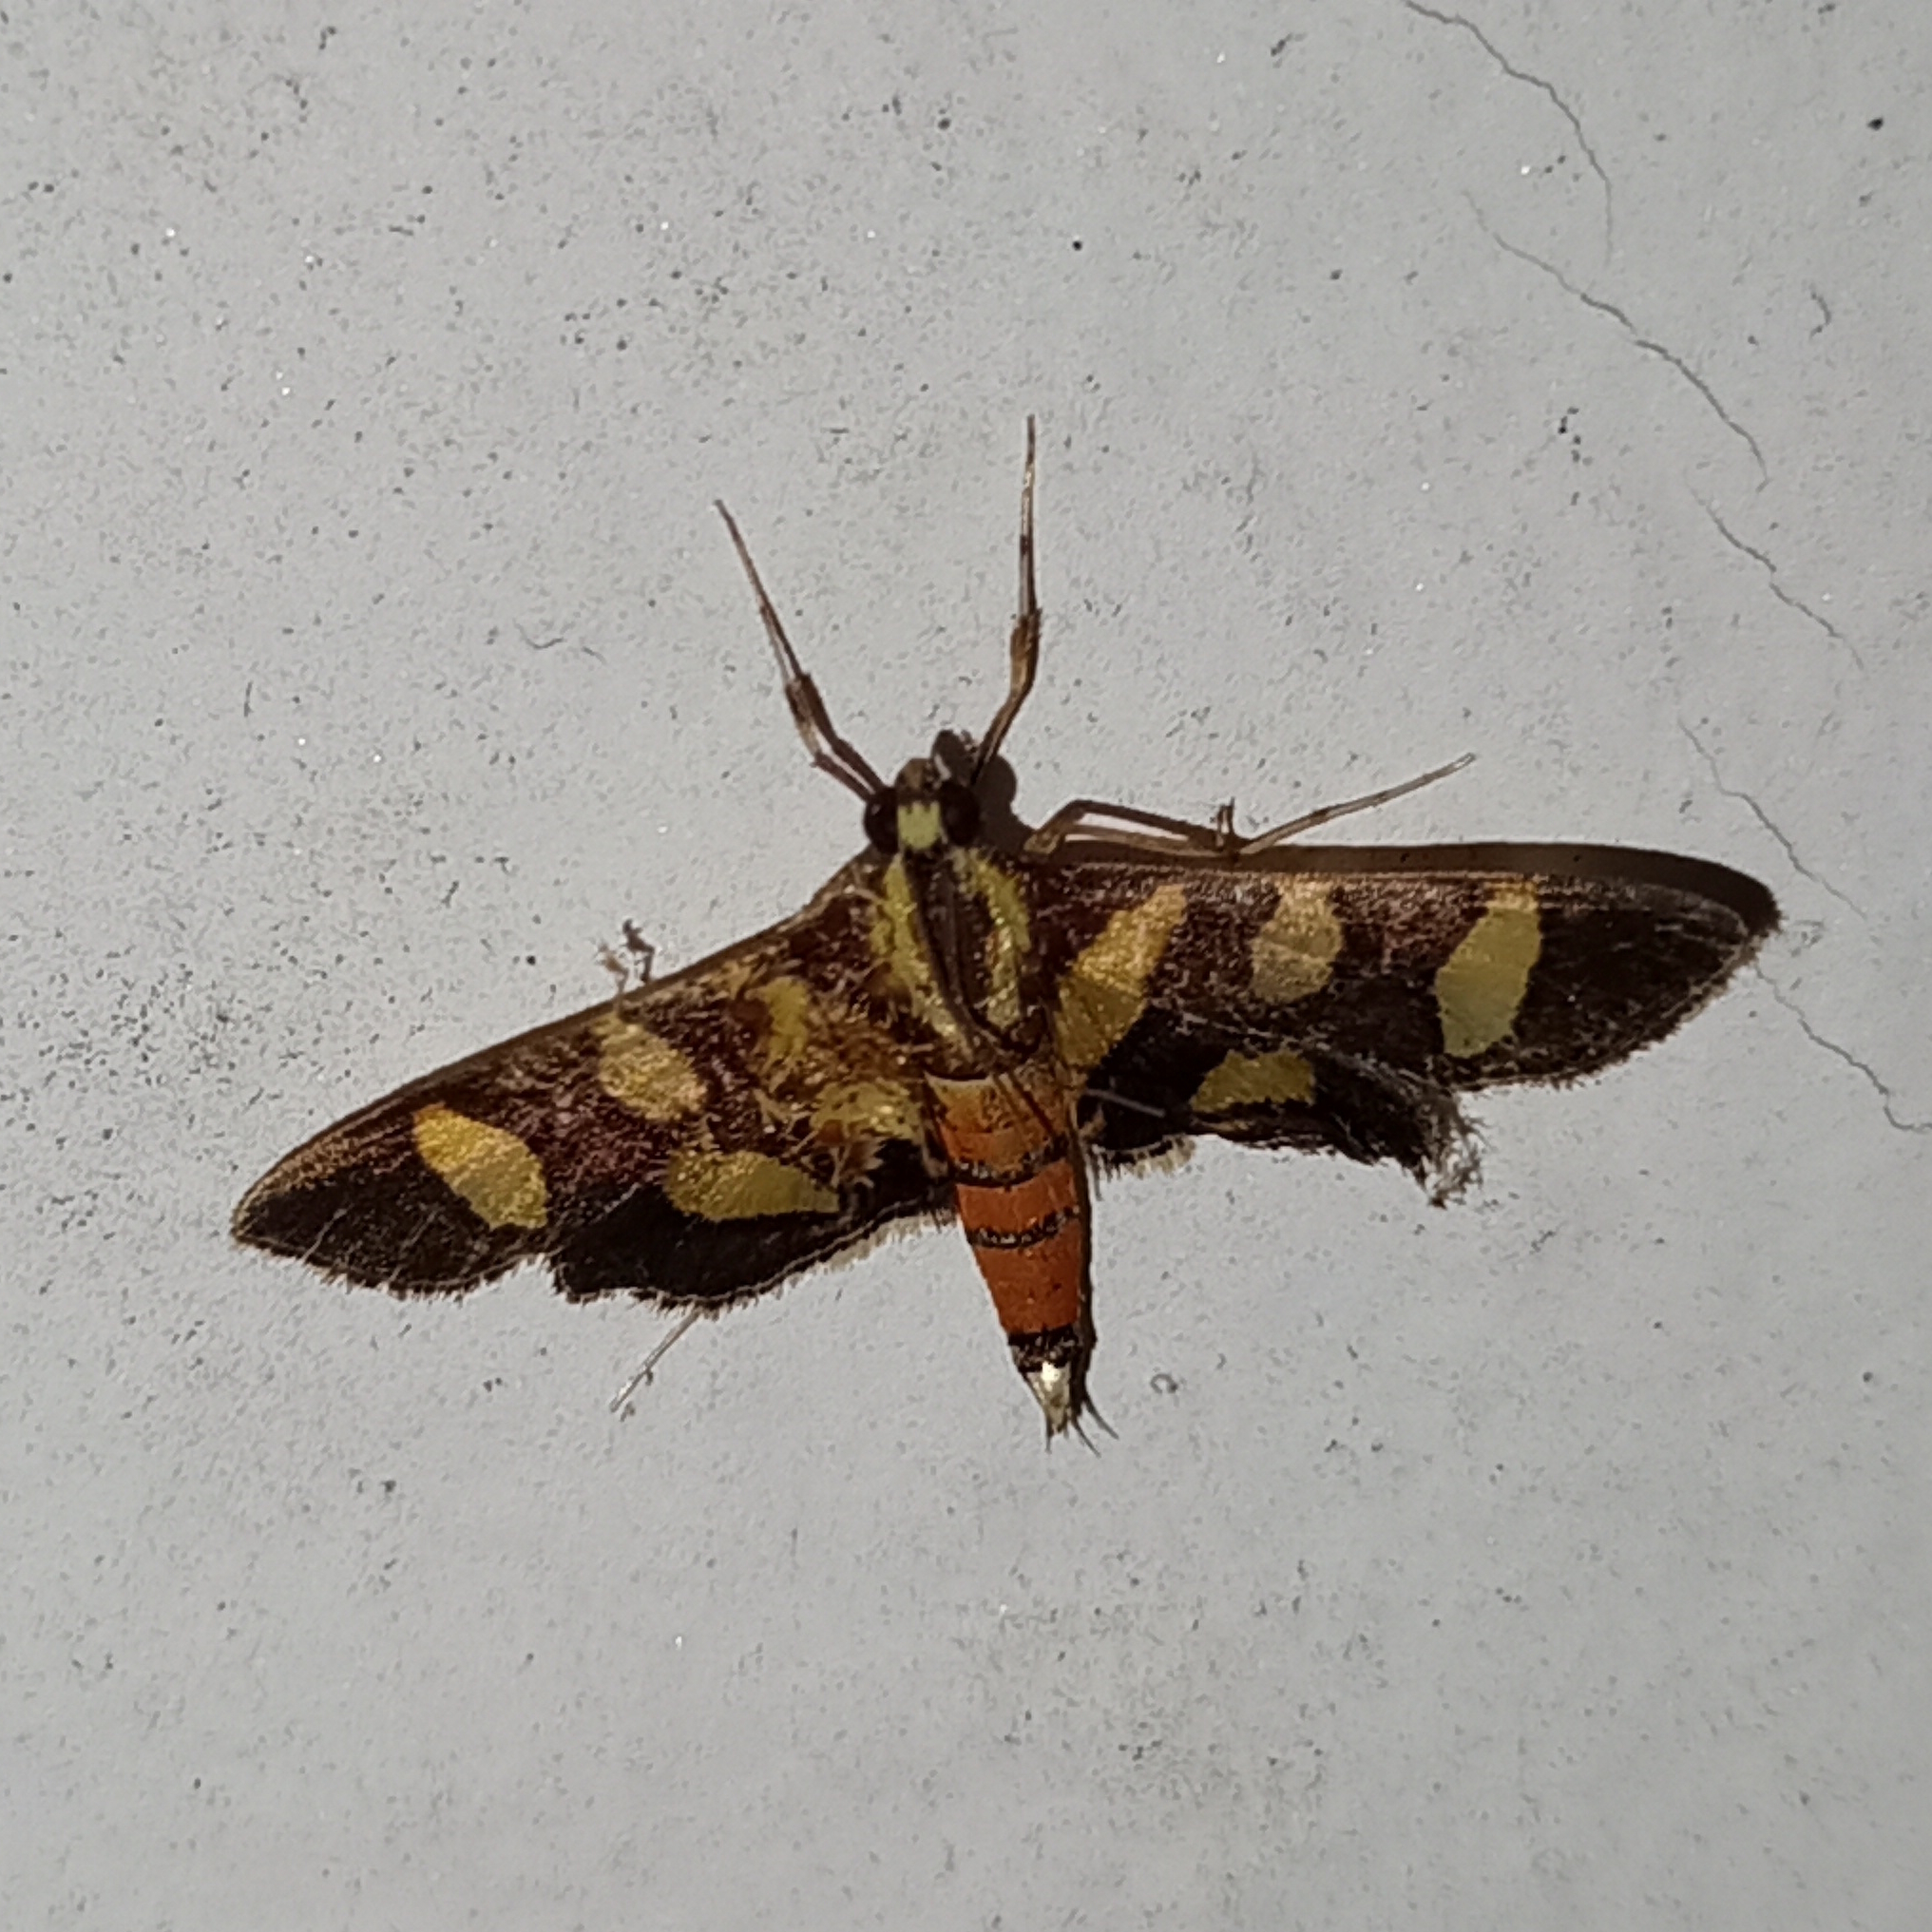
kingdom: Animalia
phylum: Arthropoda
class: Insecta
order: Lepidoptera
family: Crambidae
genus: Syngamia
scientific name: Syngamia florella
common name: Orange-spotted flower moth
